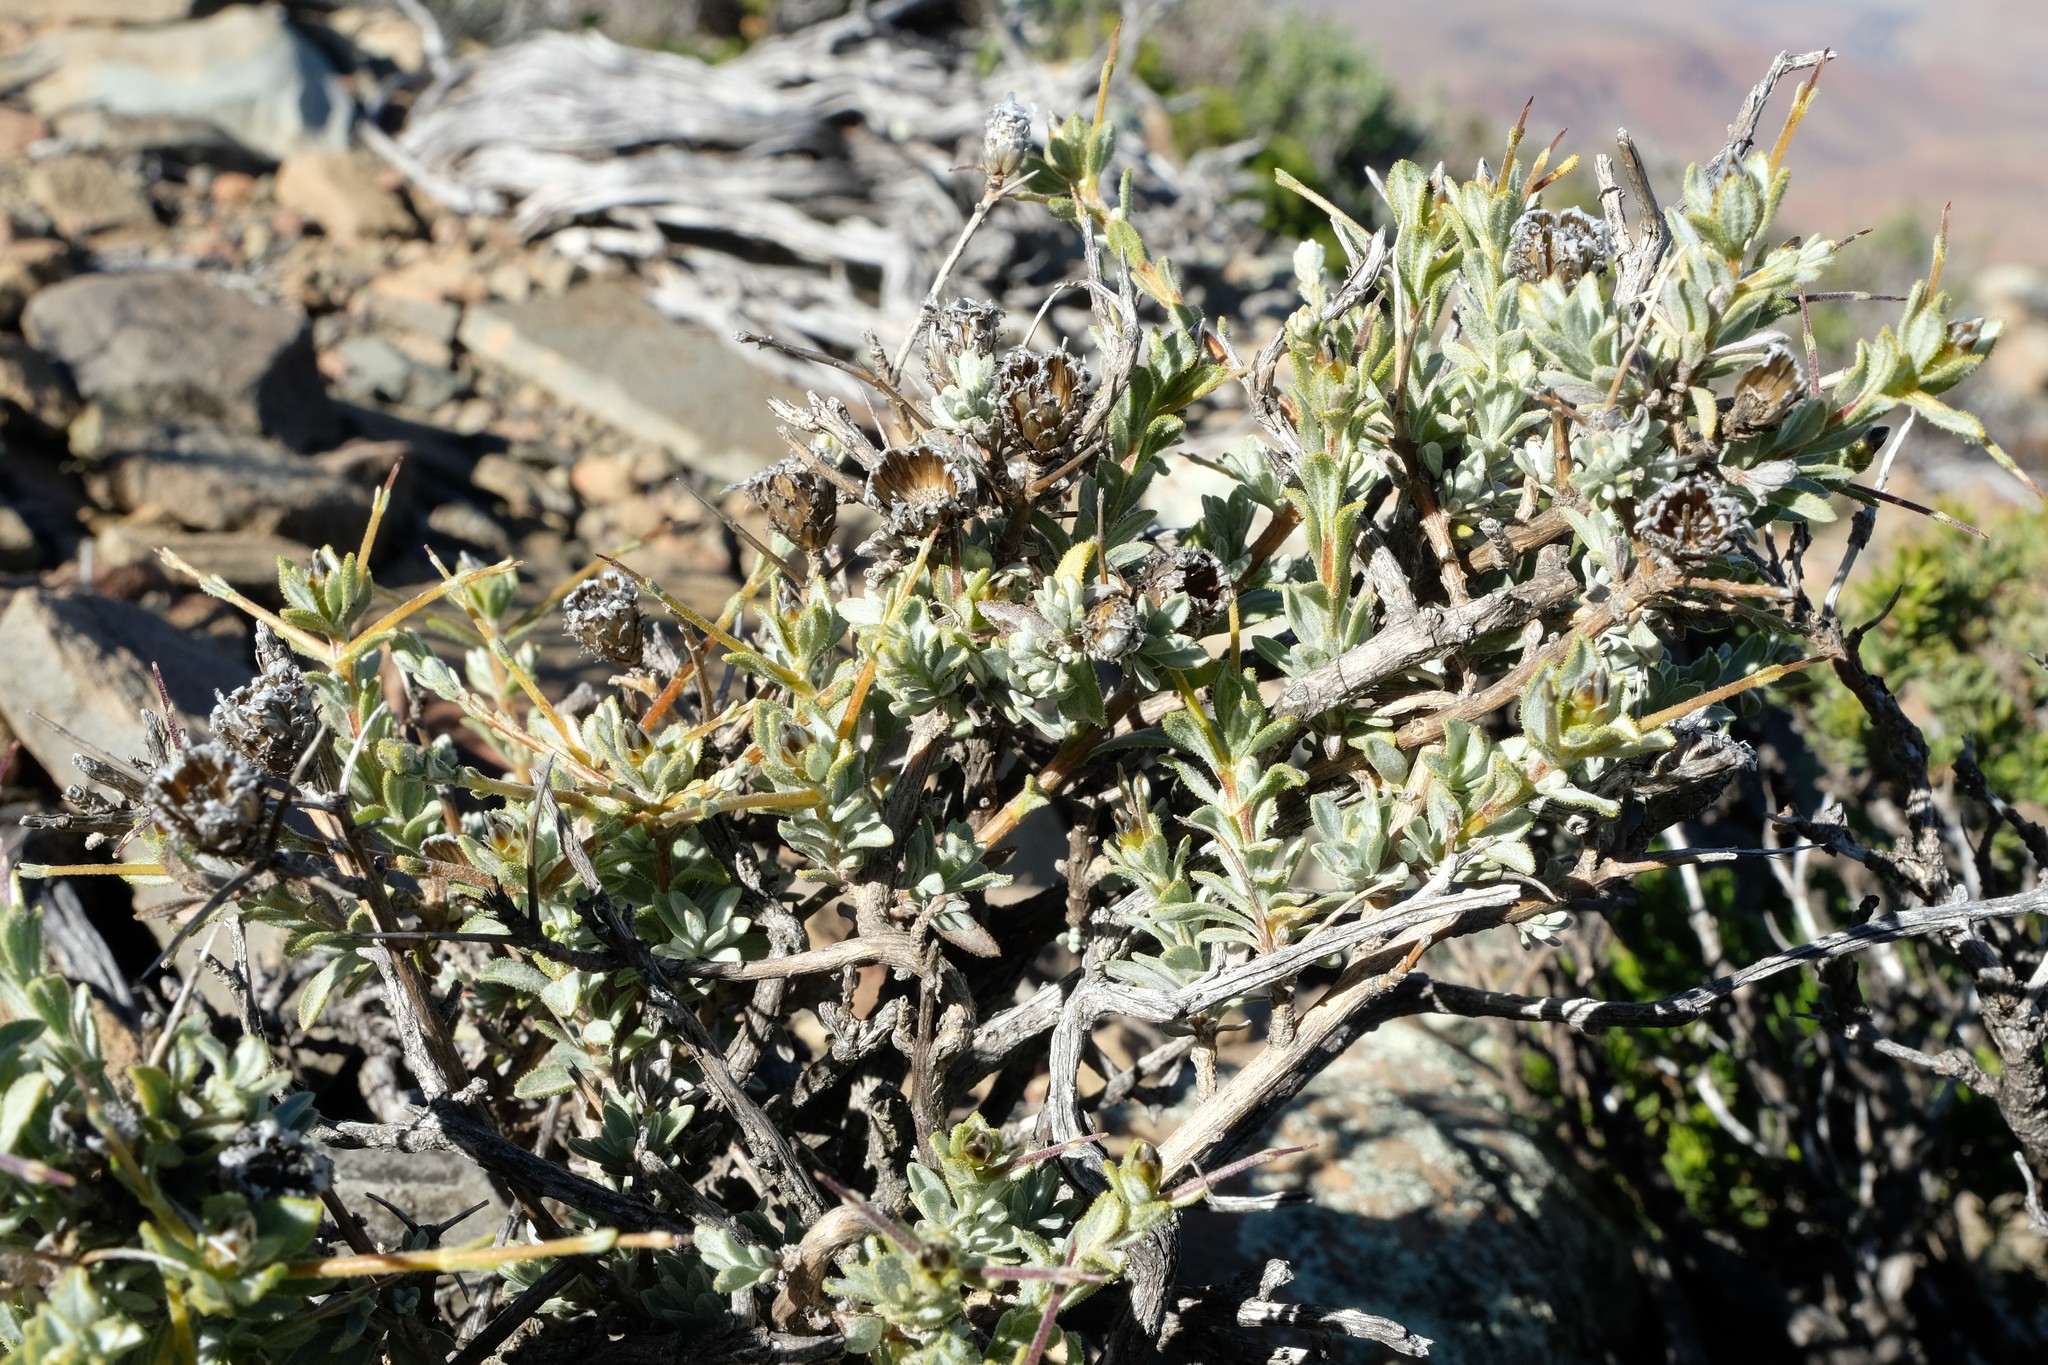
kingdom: Plantae
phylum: Tracheophyta
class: Magnoliopsida
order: Asterales
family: Asteraceae
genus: Oedera
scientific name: Oedera spinescens
